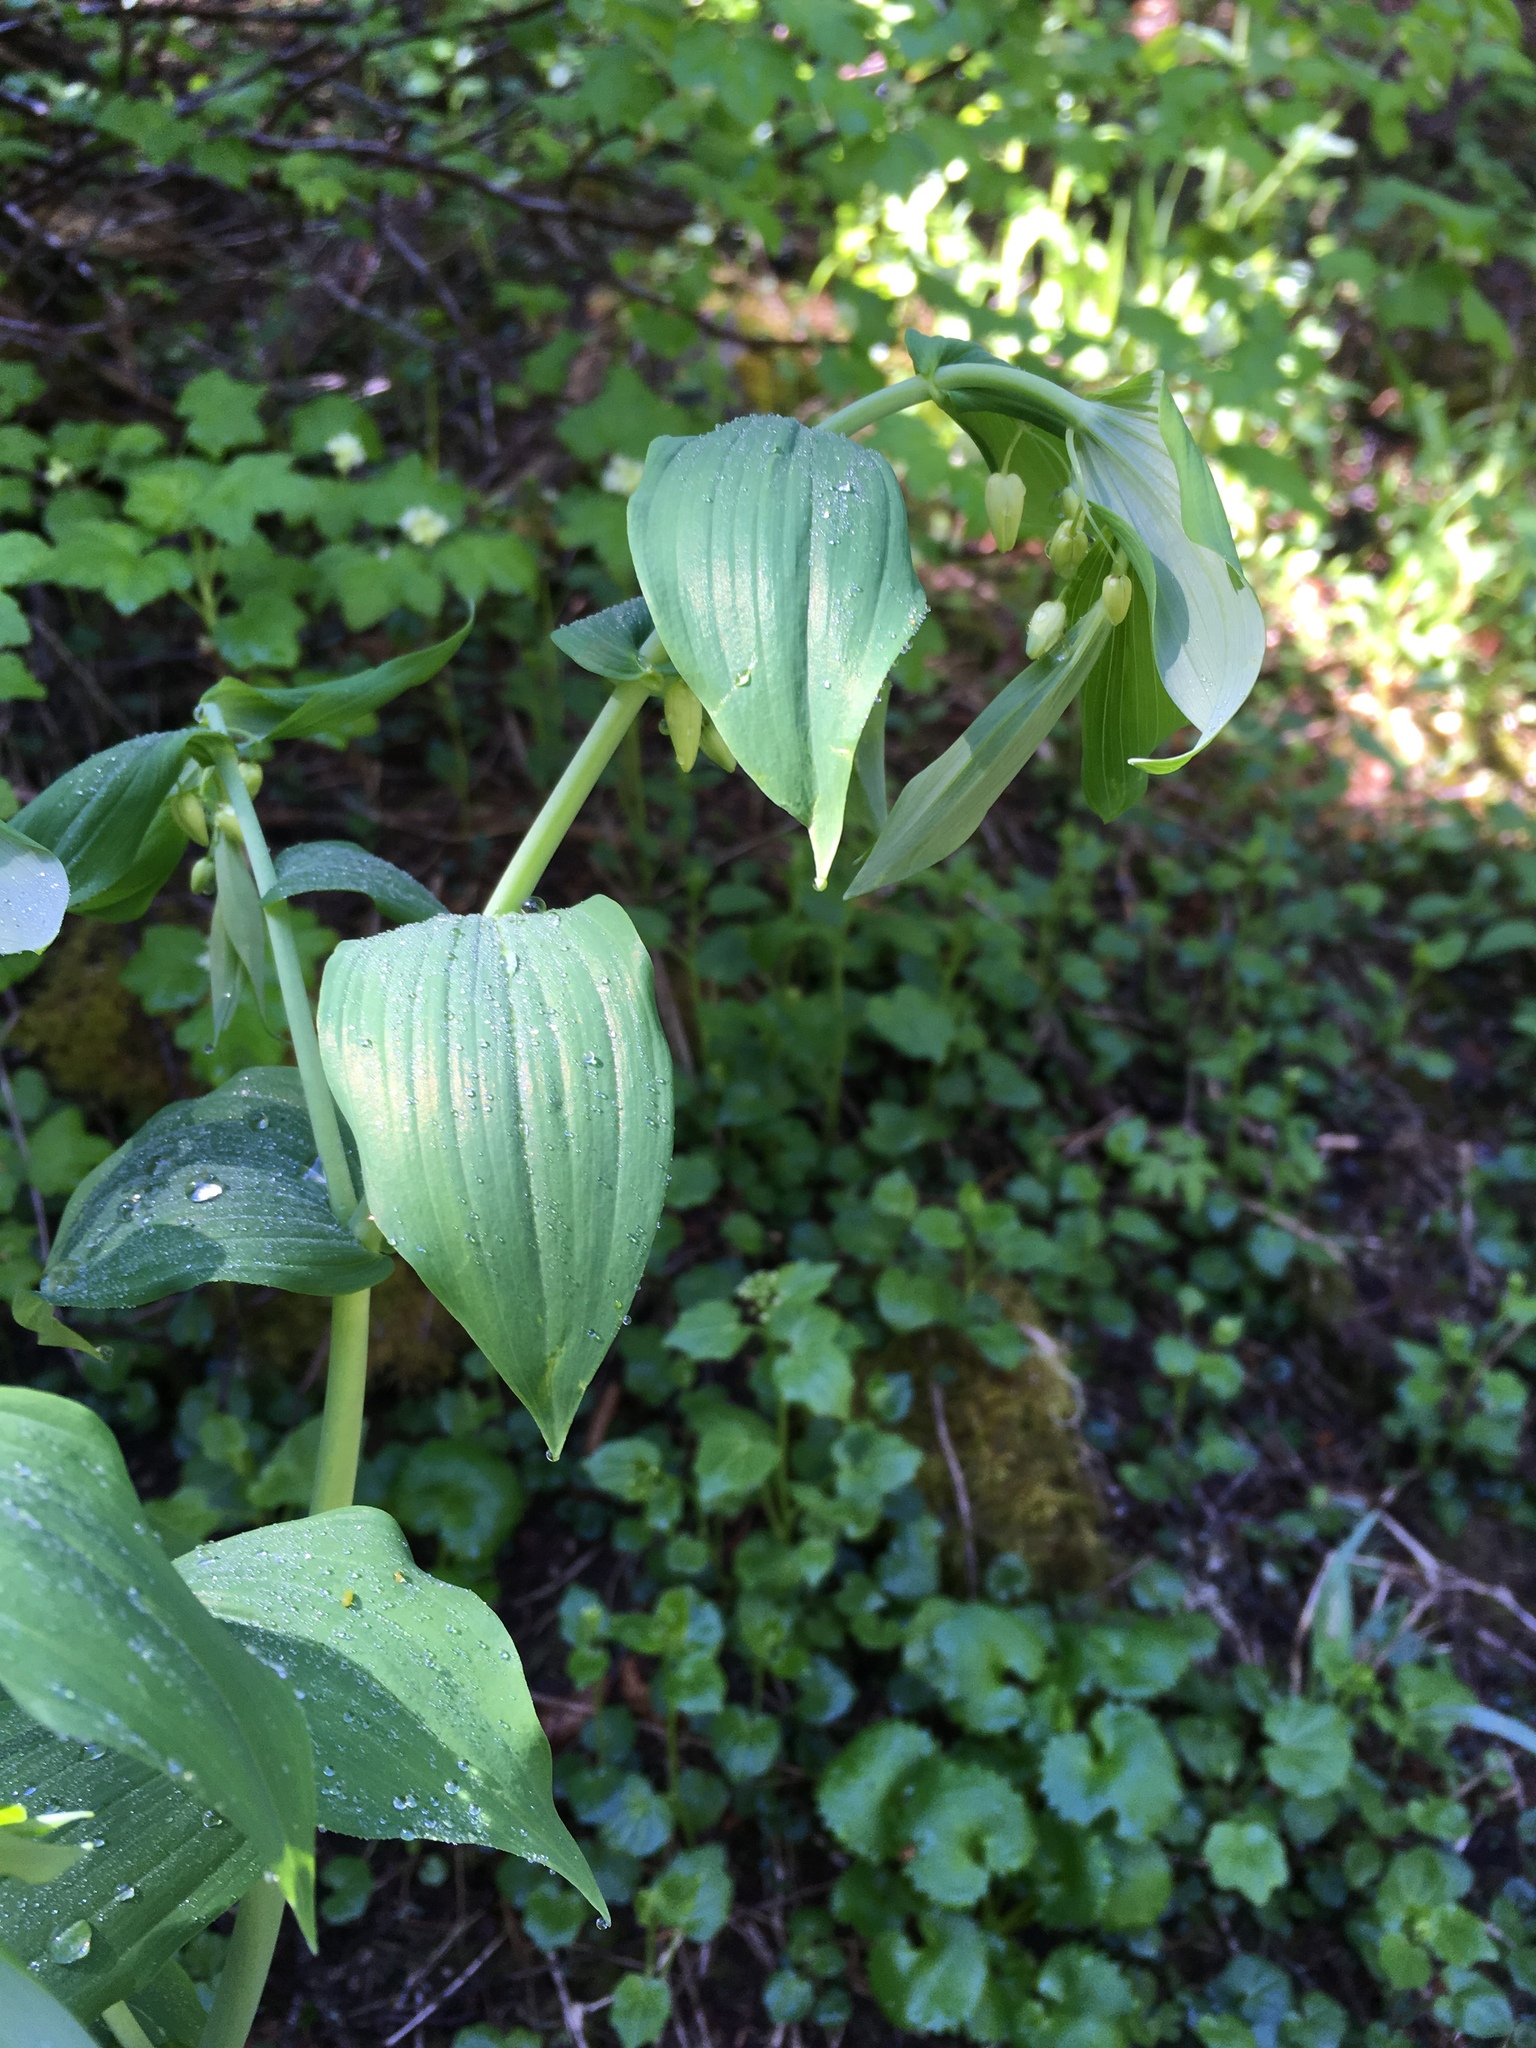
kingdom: Plantae
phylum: Tracheophyta
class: Liliopsida
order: Liliales
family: Liliaceae
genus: Streptopus
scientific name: Streptopus amplexifolius
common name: Clasp twisted stalk
